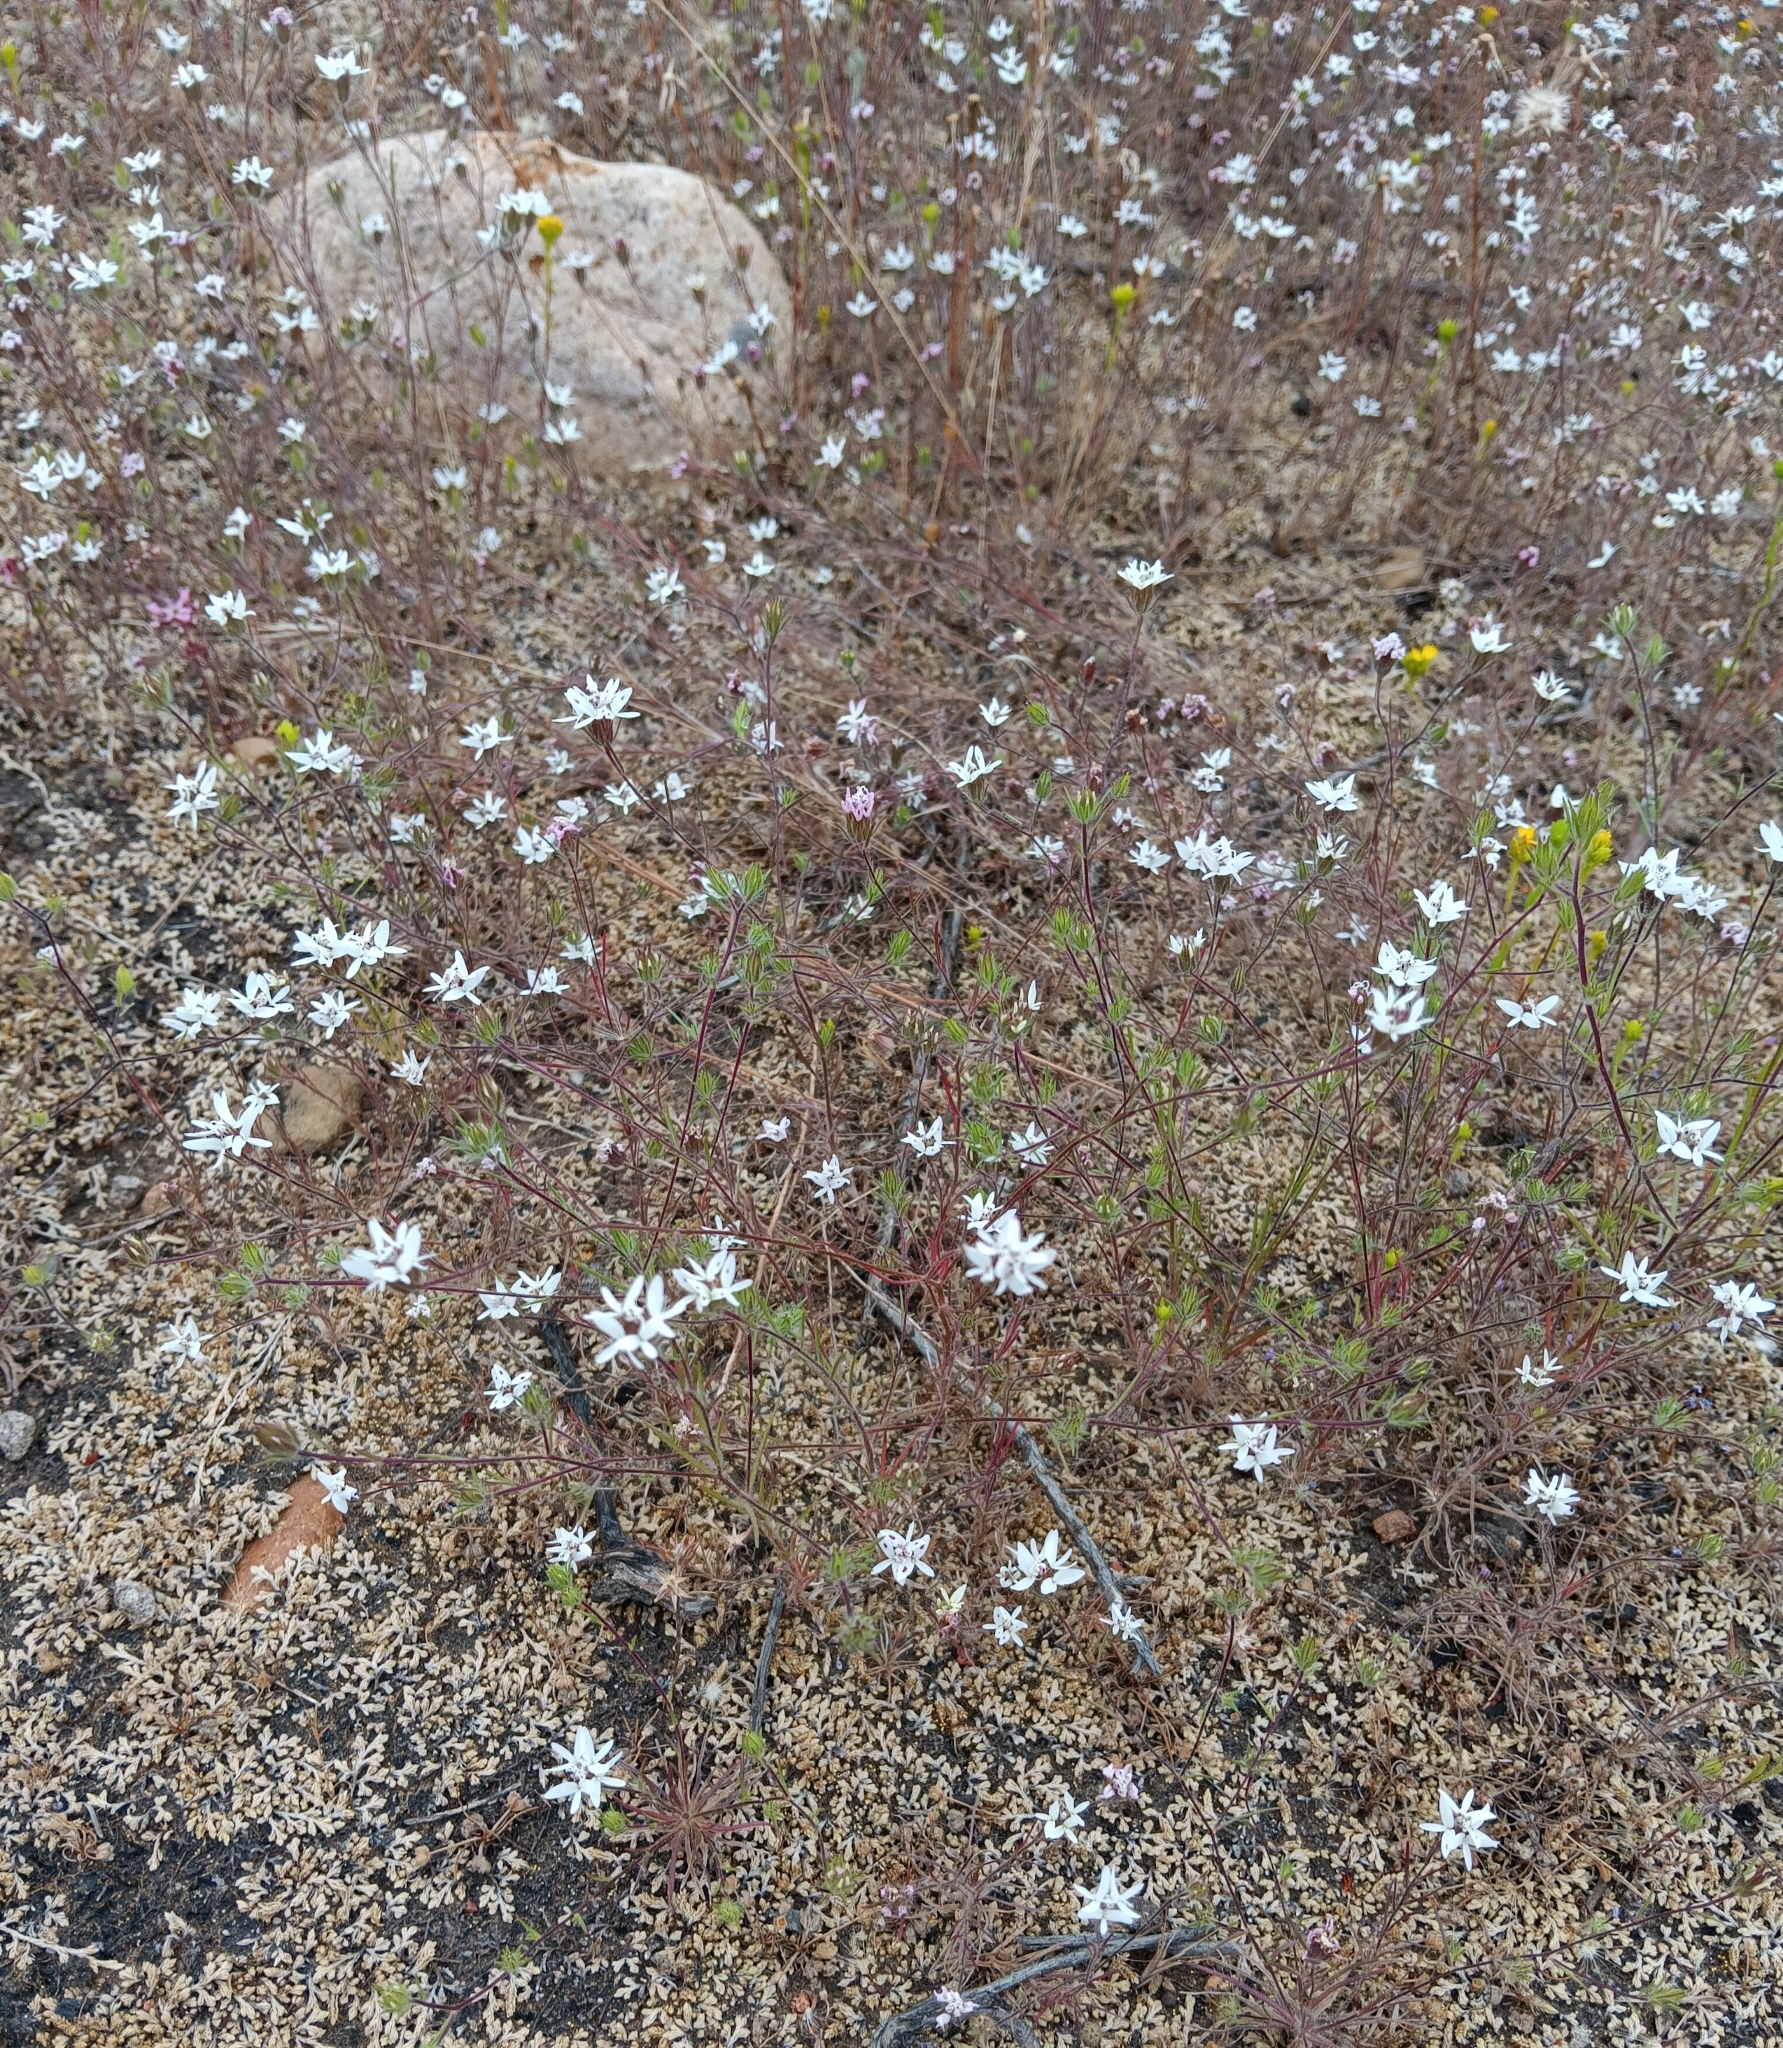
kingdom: Plantae
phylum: Tracheophyta
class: Magnoliopsida
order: Asterales
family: Asteraceae
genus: Osmadenia
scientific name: Osmadenia tenella
